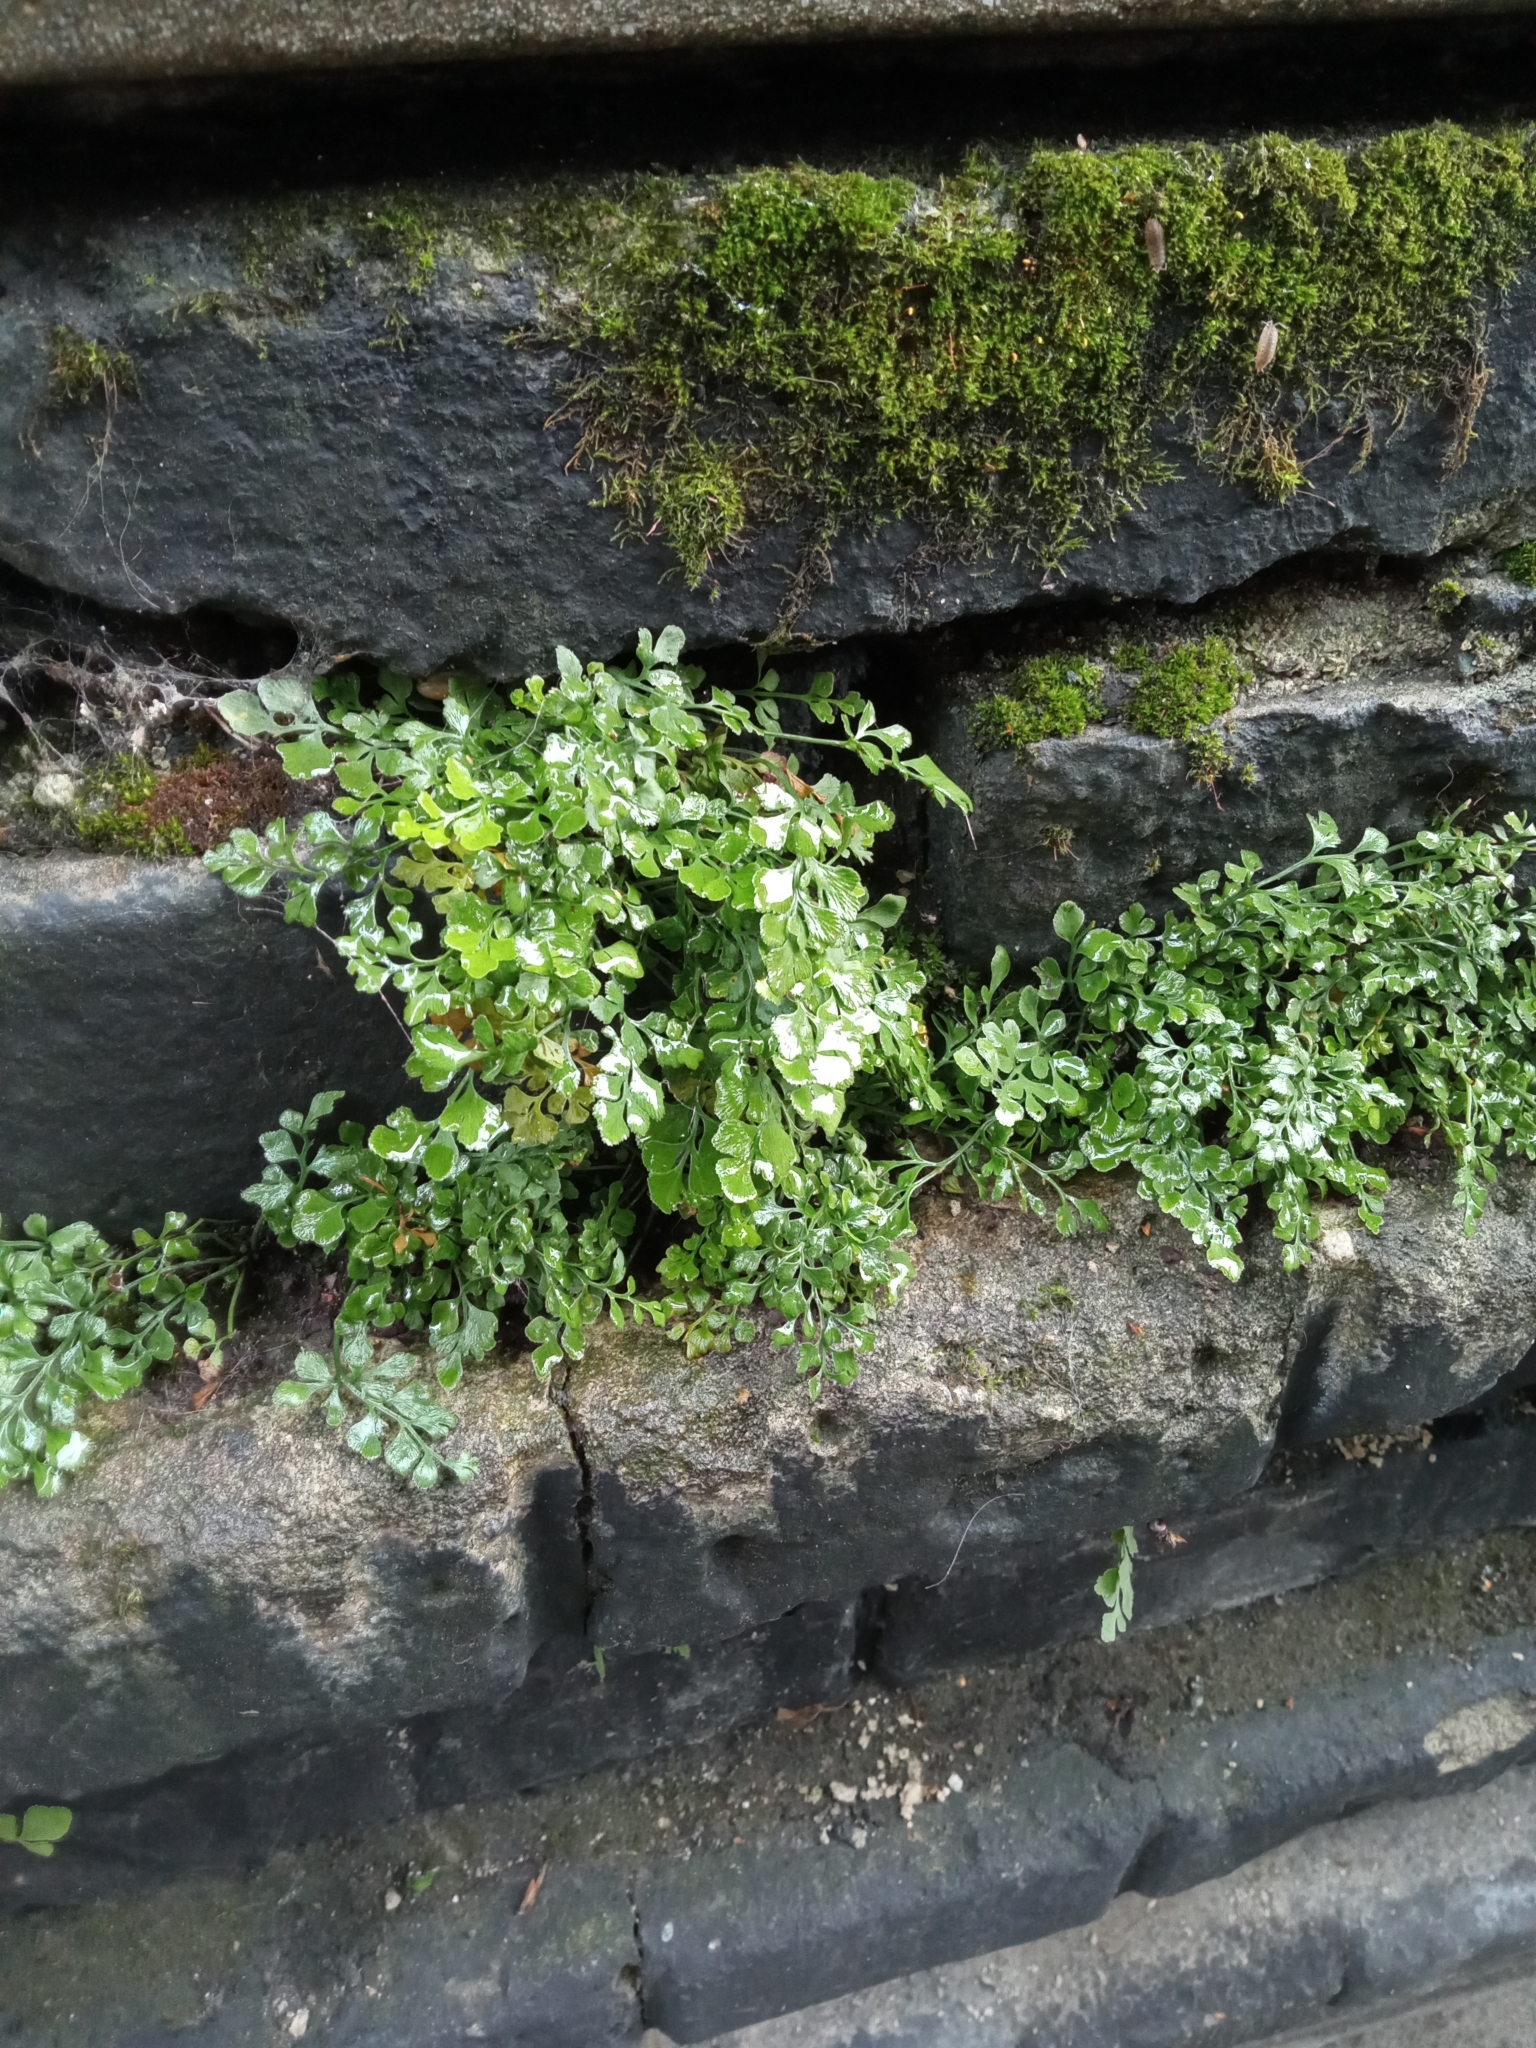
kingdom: Plantae
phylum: Tracheophyta
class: Polypodiopsida
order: Polypodiales
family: Aspleniaceae
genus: Asplenium
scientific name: Asplenium ruta-muraria
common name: Wall-rue
